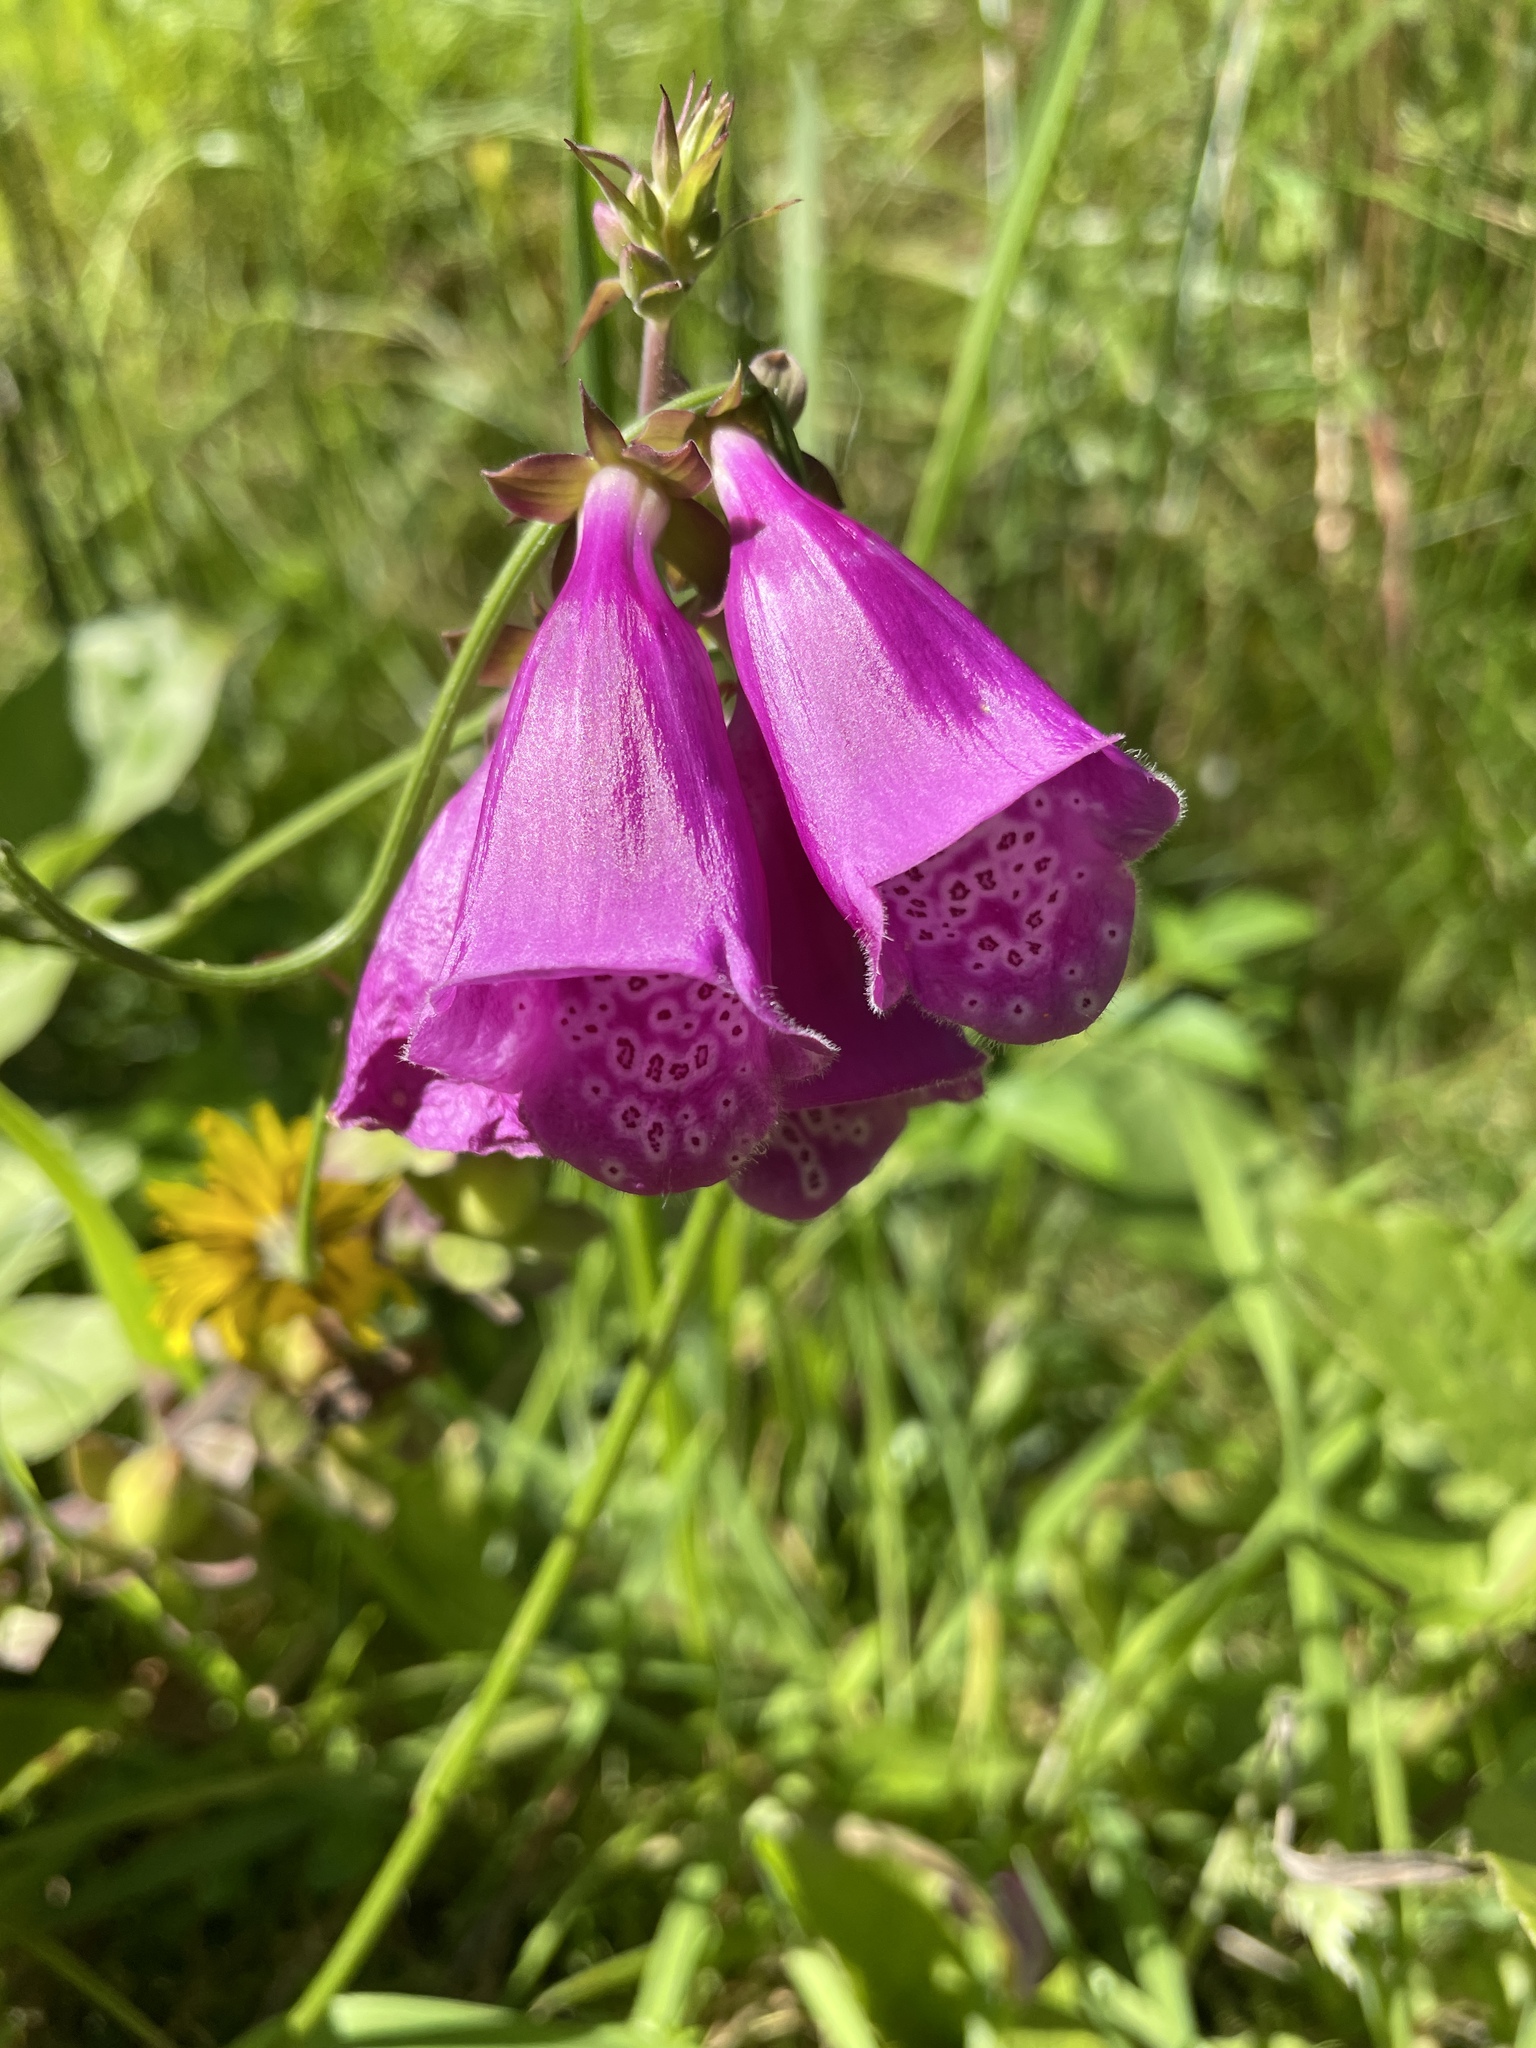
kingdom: Plantae
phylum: Tracheophyta
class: Magnoliopsida
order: Lamiales
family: Plantaginaceae
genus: Digitalis
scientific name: Digitalis purpurea
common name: Foxglove
